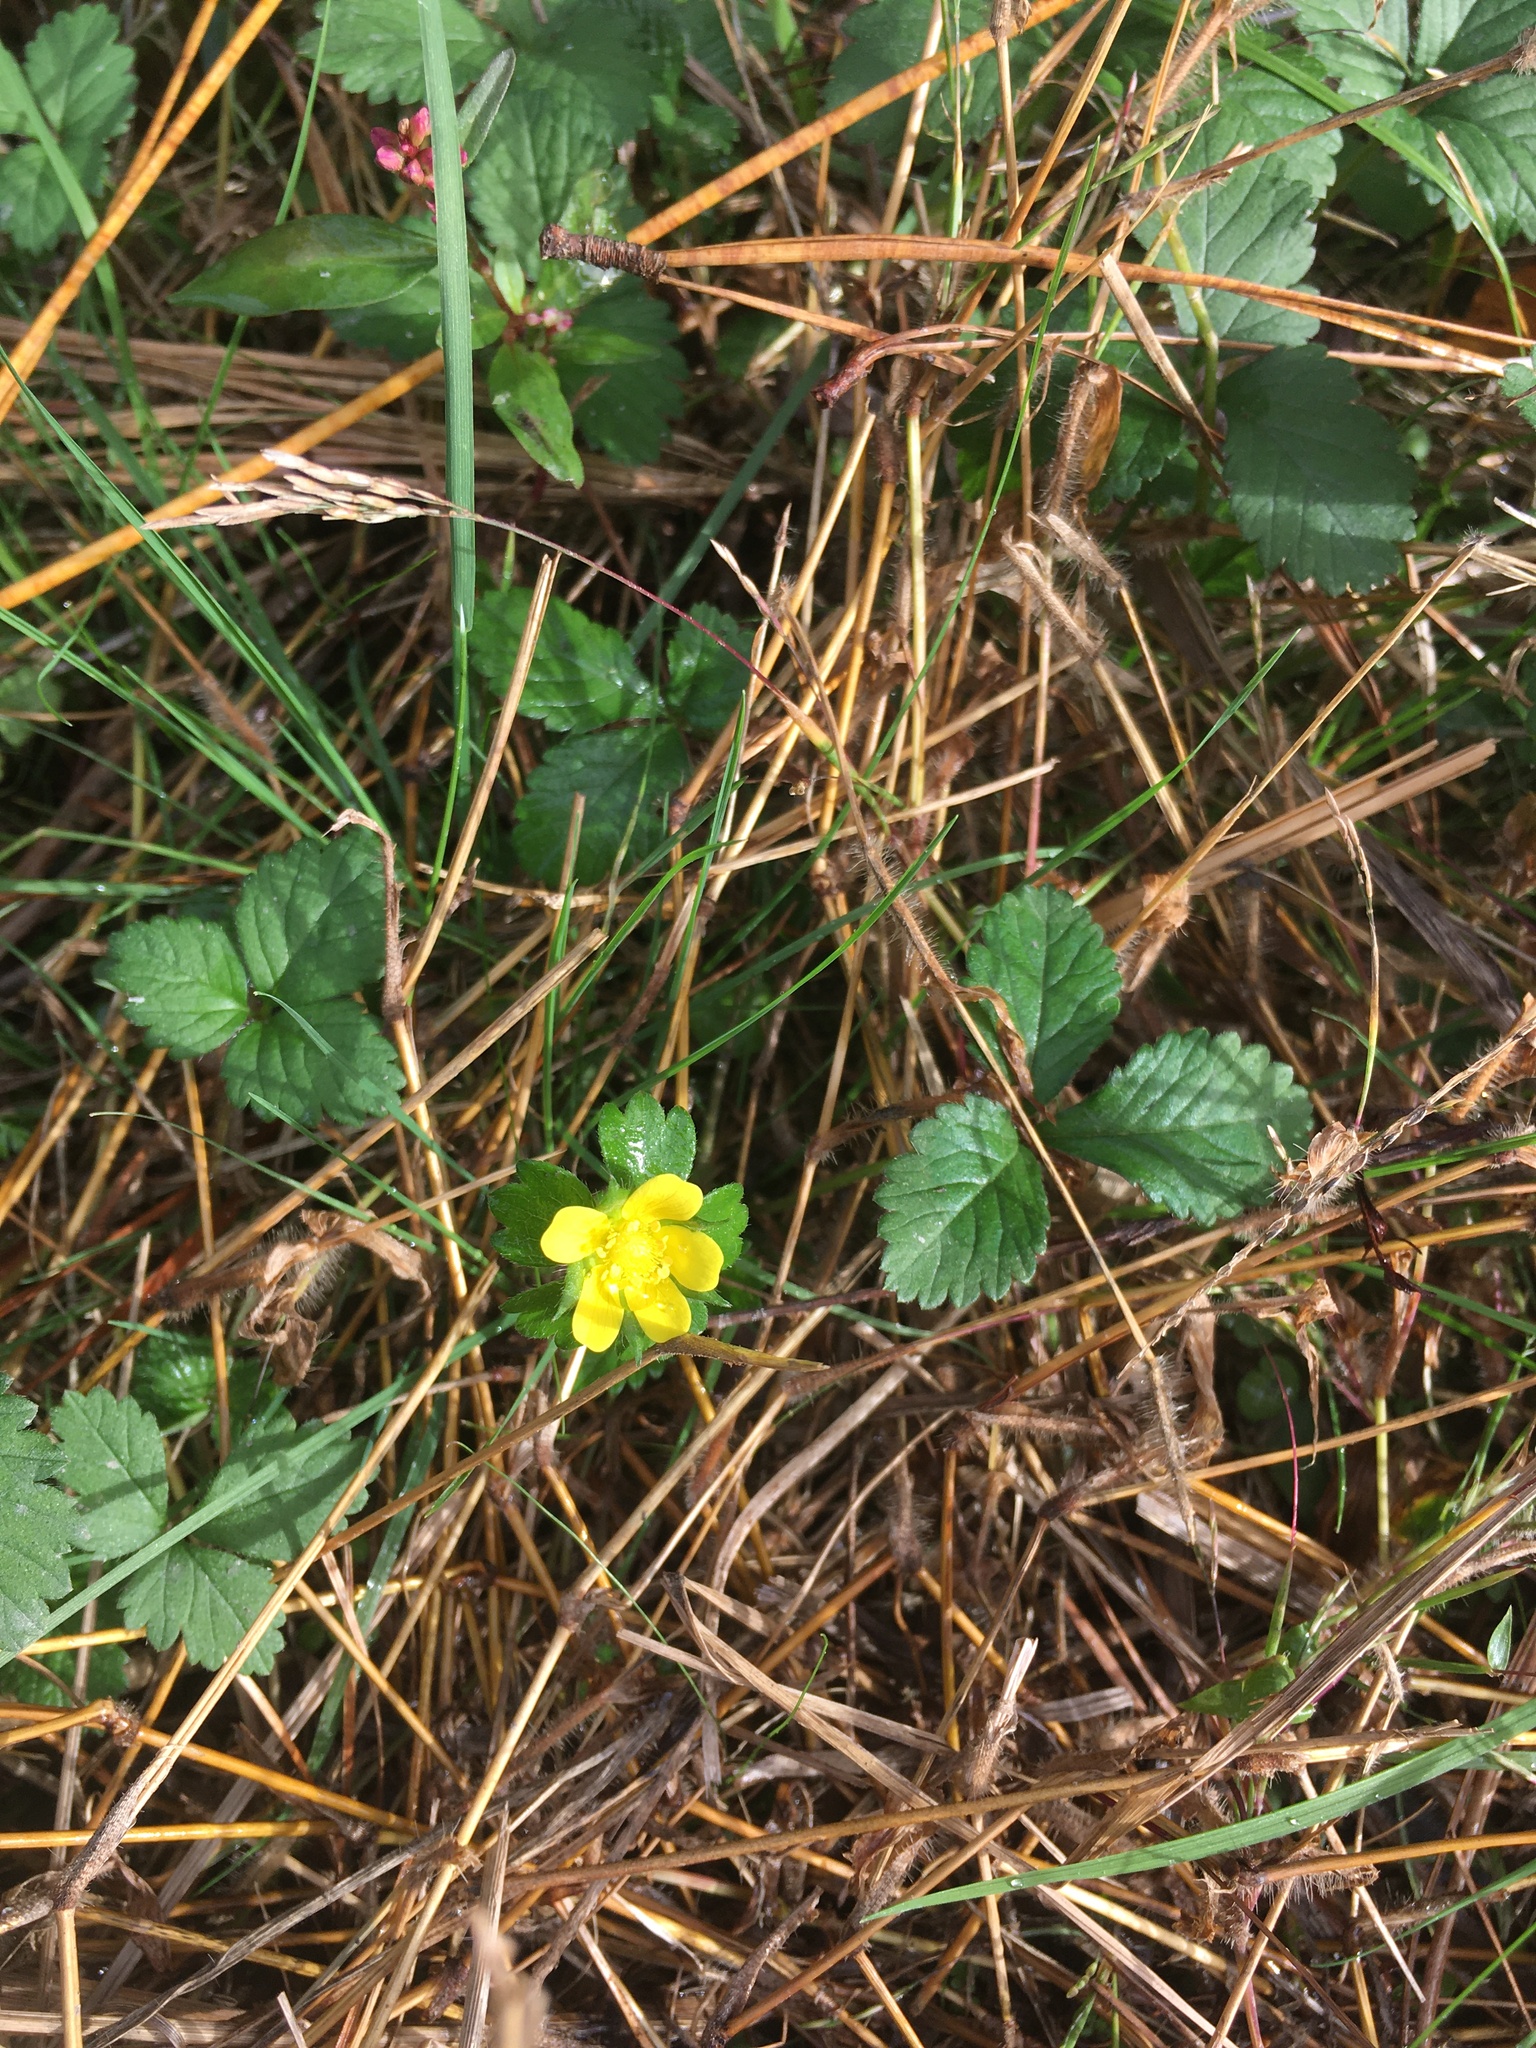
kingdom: Plantae
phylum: Tracheophyta
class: Magnoliopsida
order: Rosales
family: Rosaceae
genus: Potentilla
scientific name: Potentilla indica
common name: Yellow-flowered strawberry
